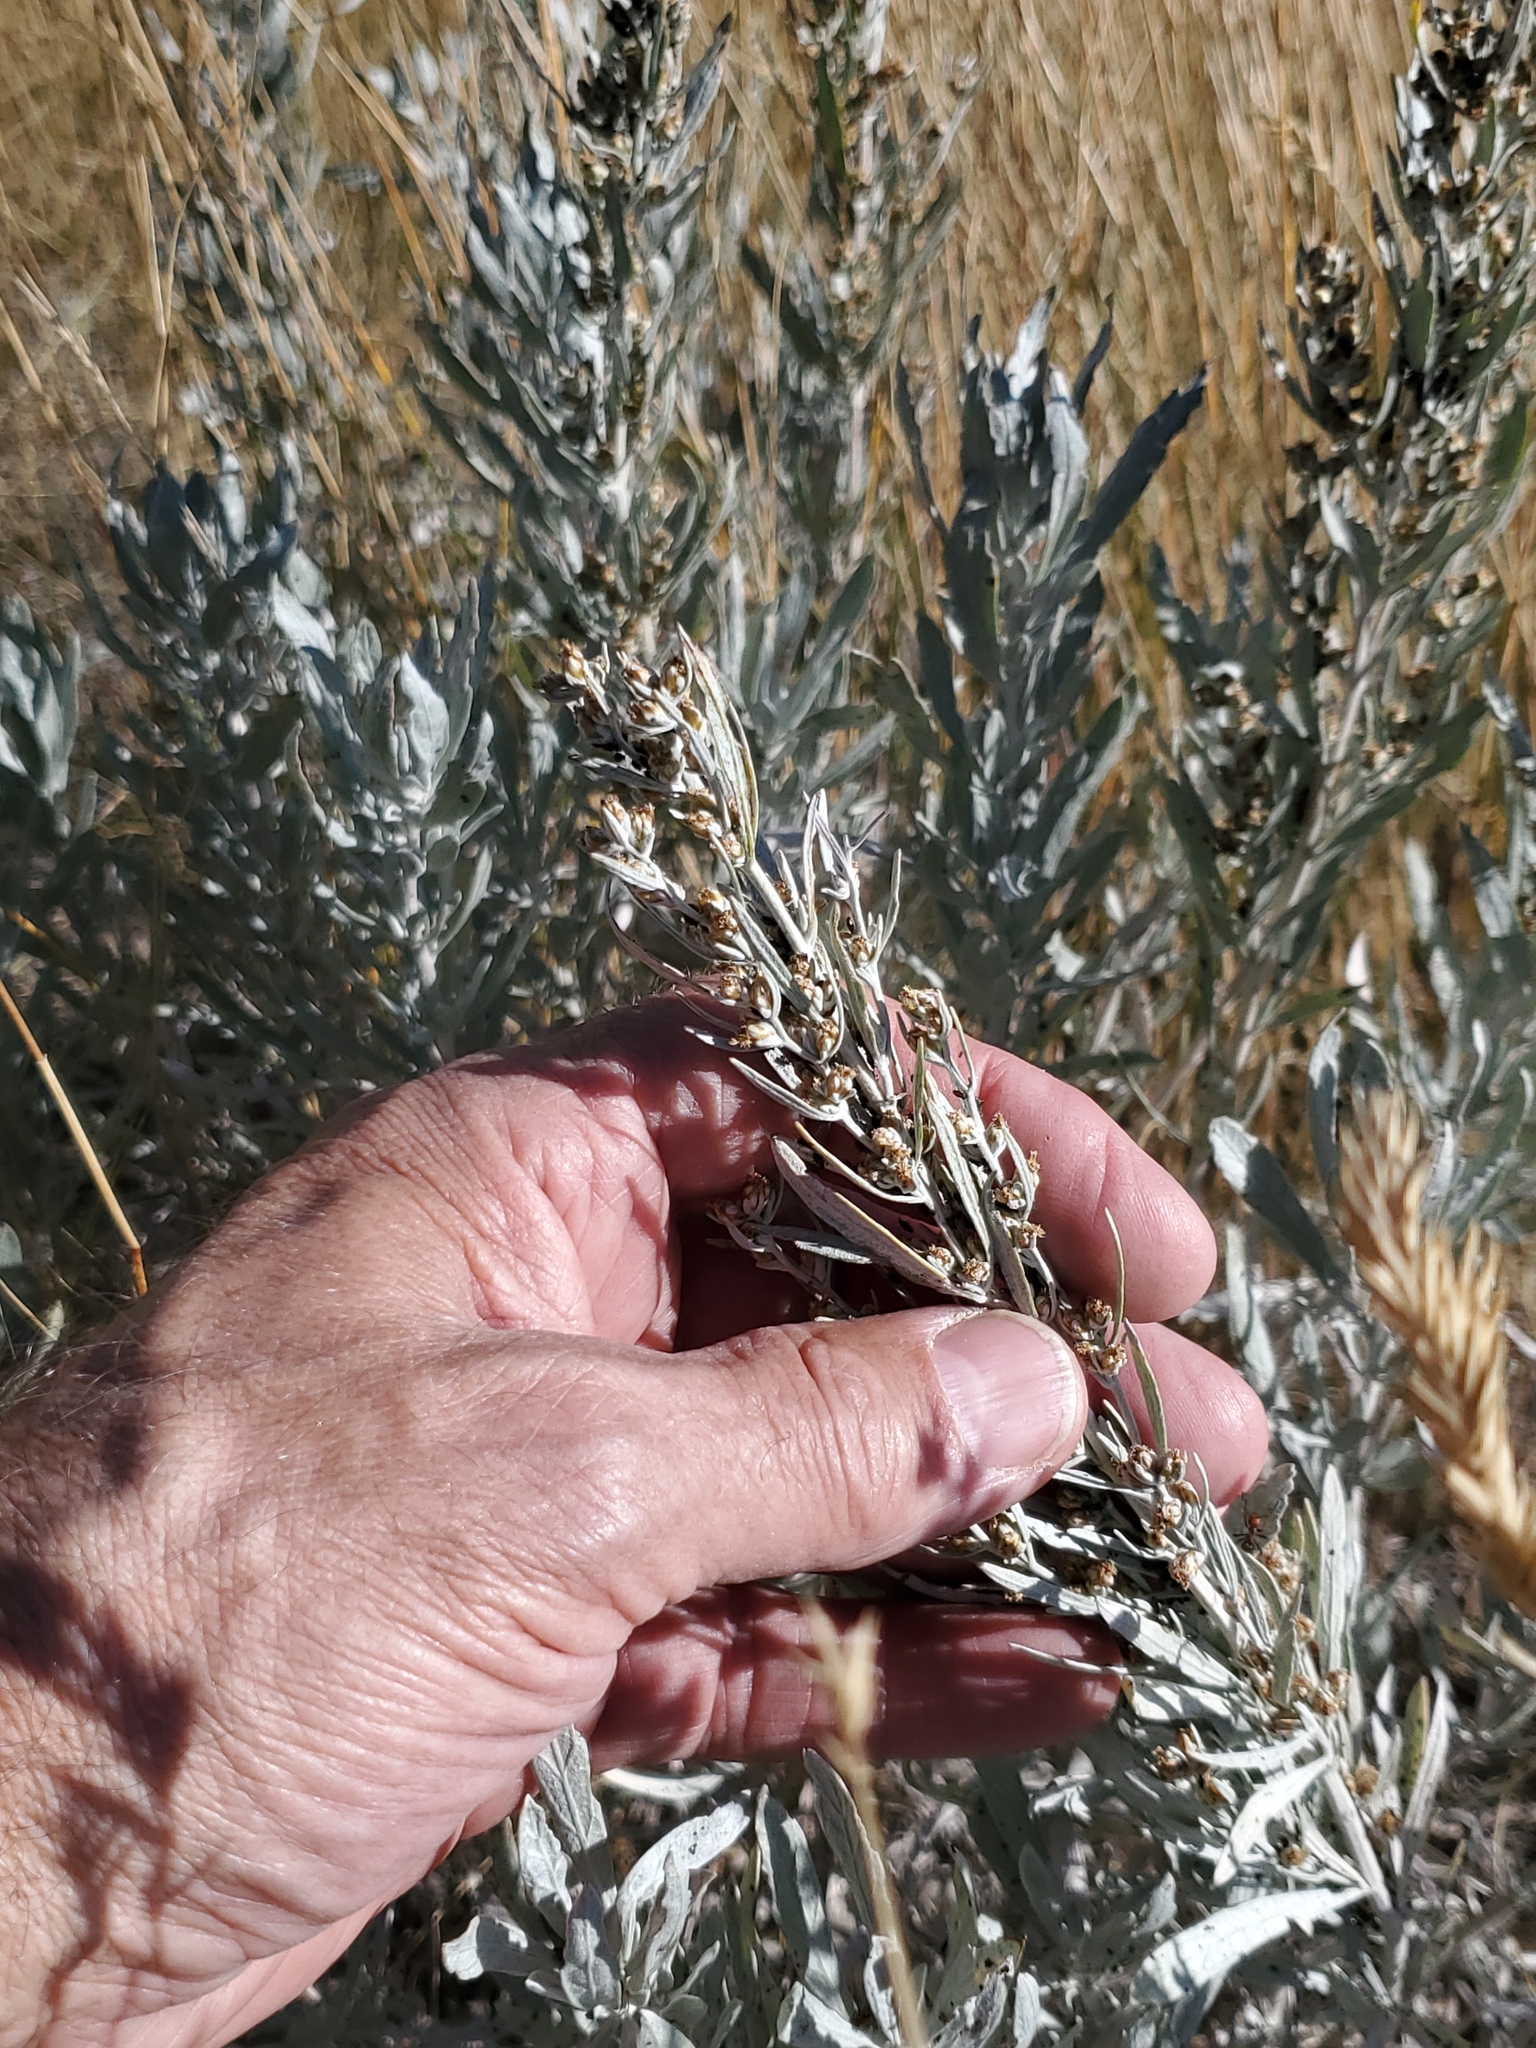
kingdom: Plantae
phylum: Tracheophyta
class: Magnoliopsida
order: Asterales
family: Asteraceae
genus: Artemisia
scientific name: Artemisia cana
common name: Silver sagebrush
